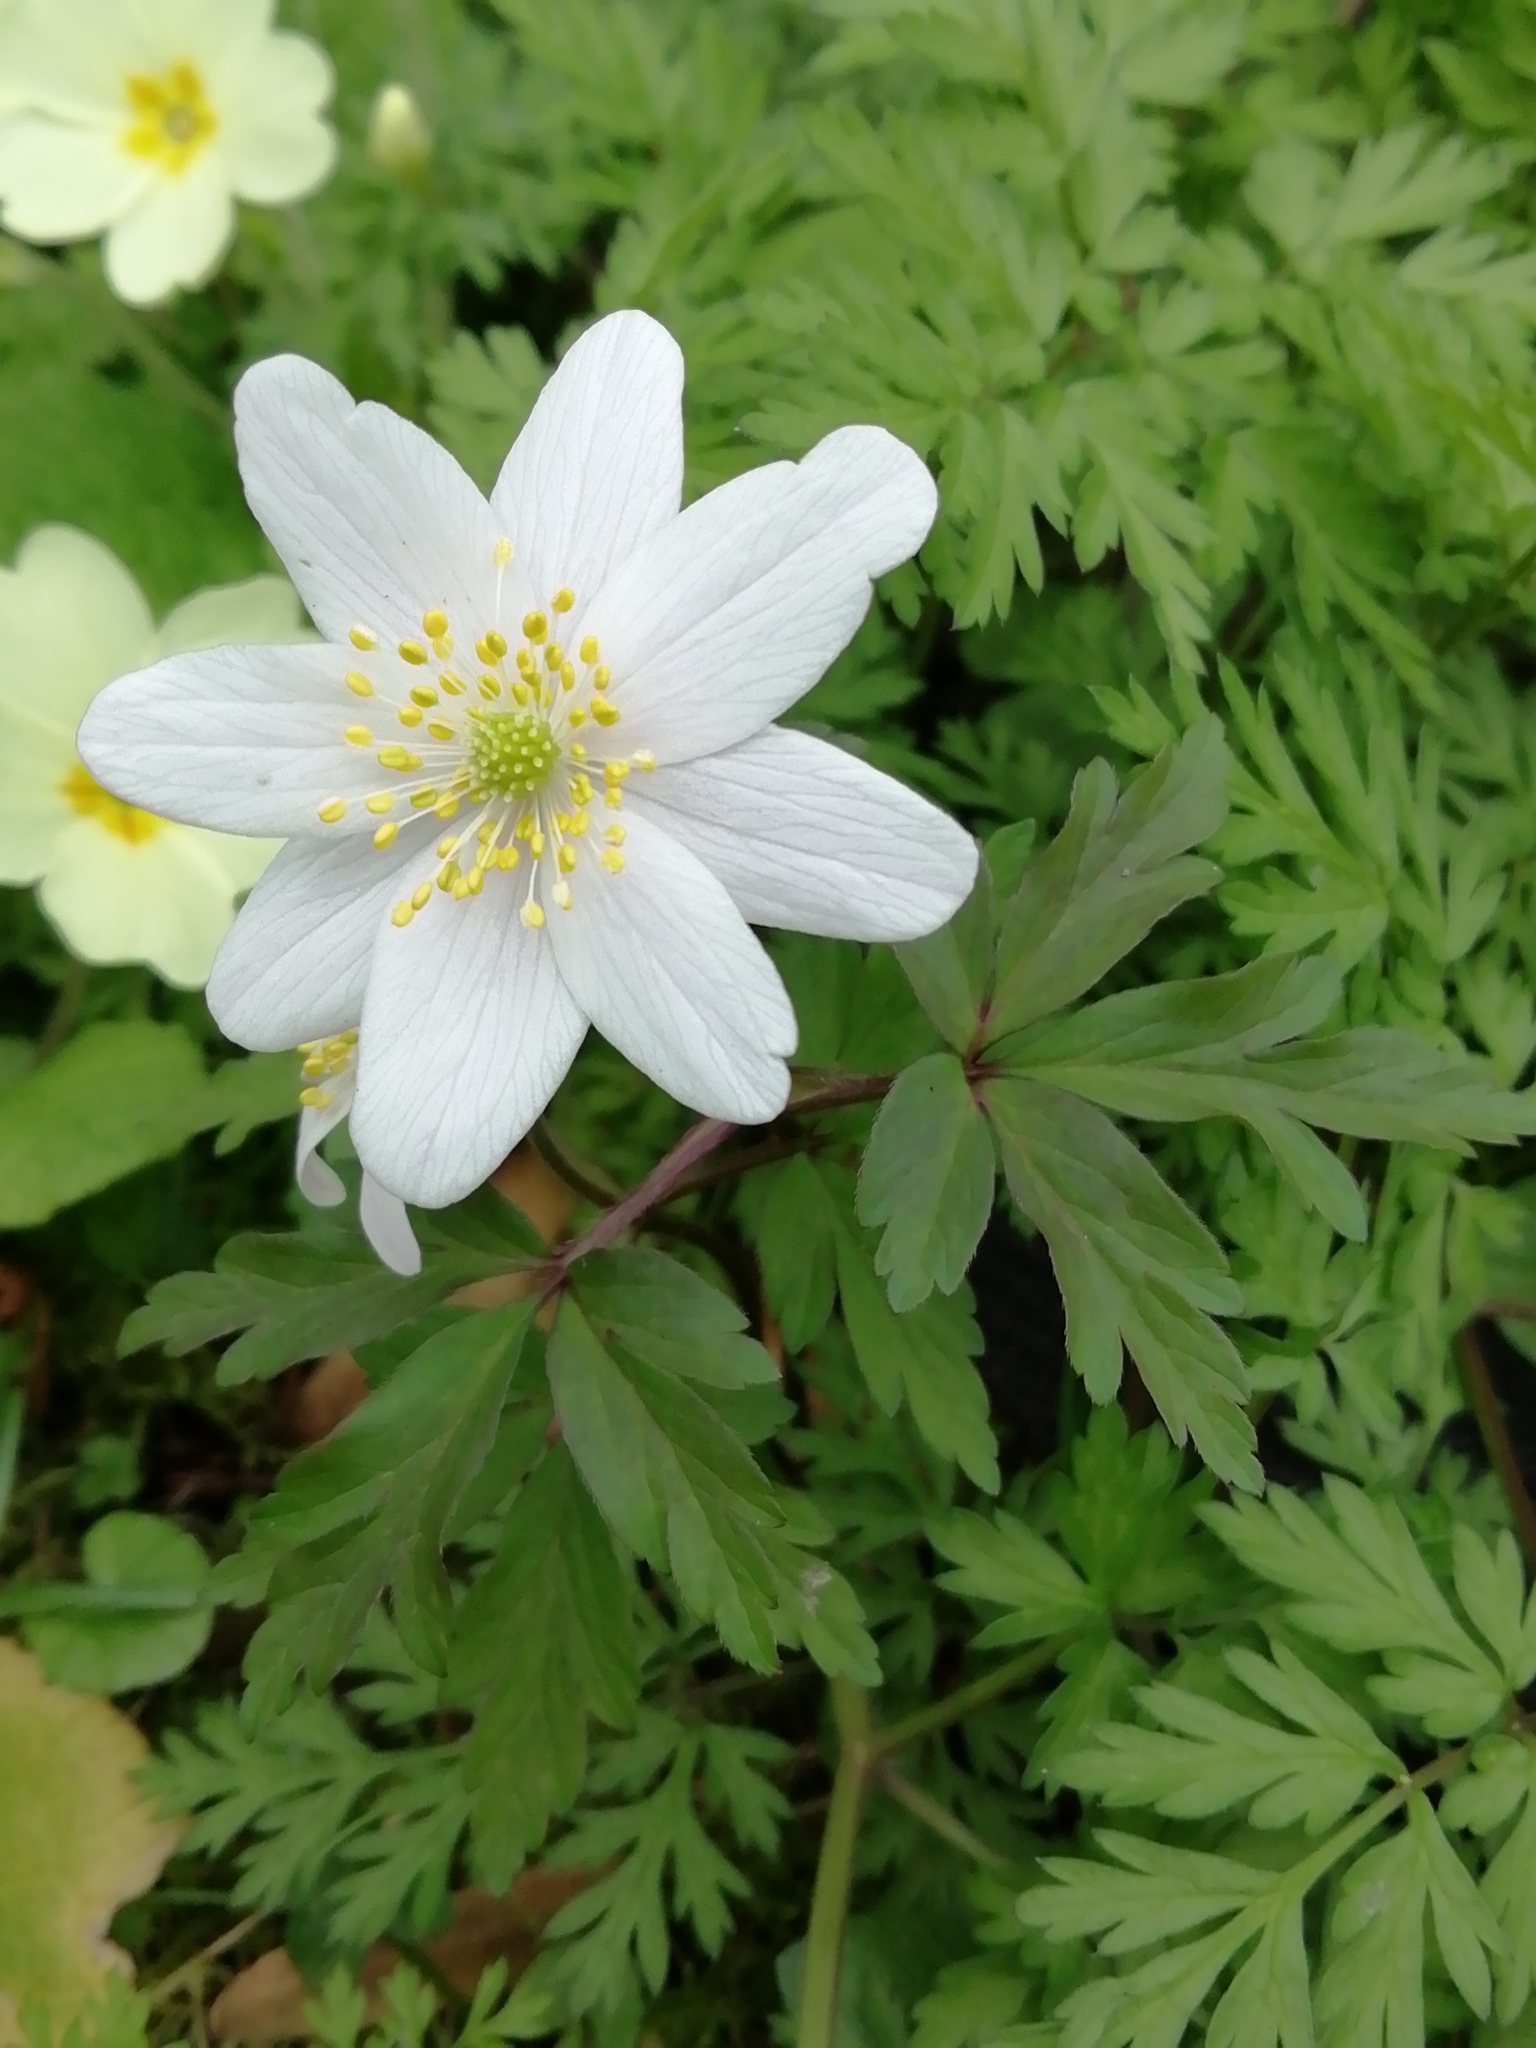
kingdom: Plantae
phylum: Tracheophyta
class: Magnoliopsida
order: Ranunculales
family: Ranunculaceae
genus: Anemone
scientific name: Anemone nemorosa
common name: Wood anemone
